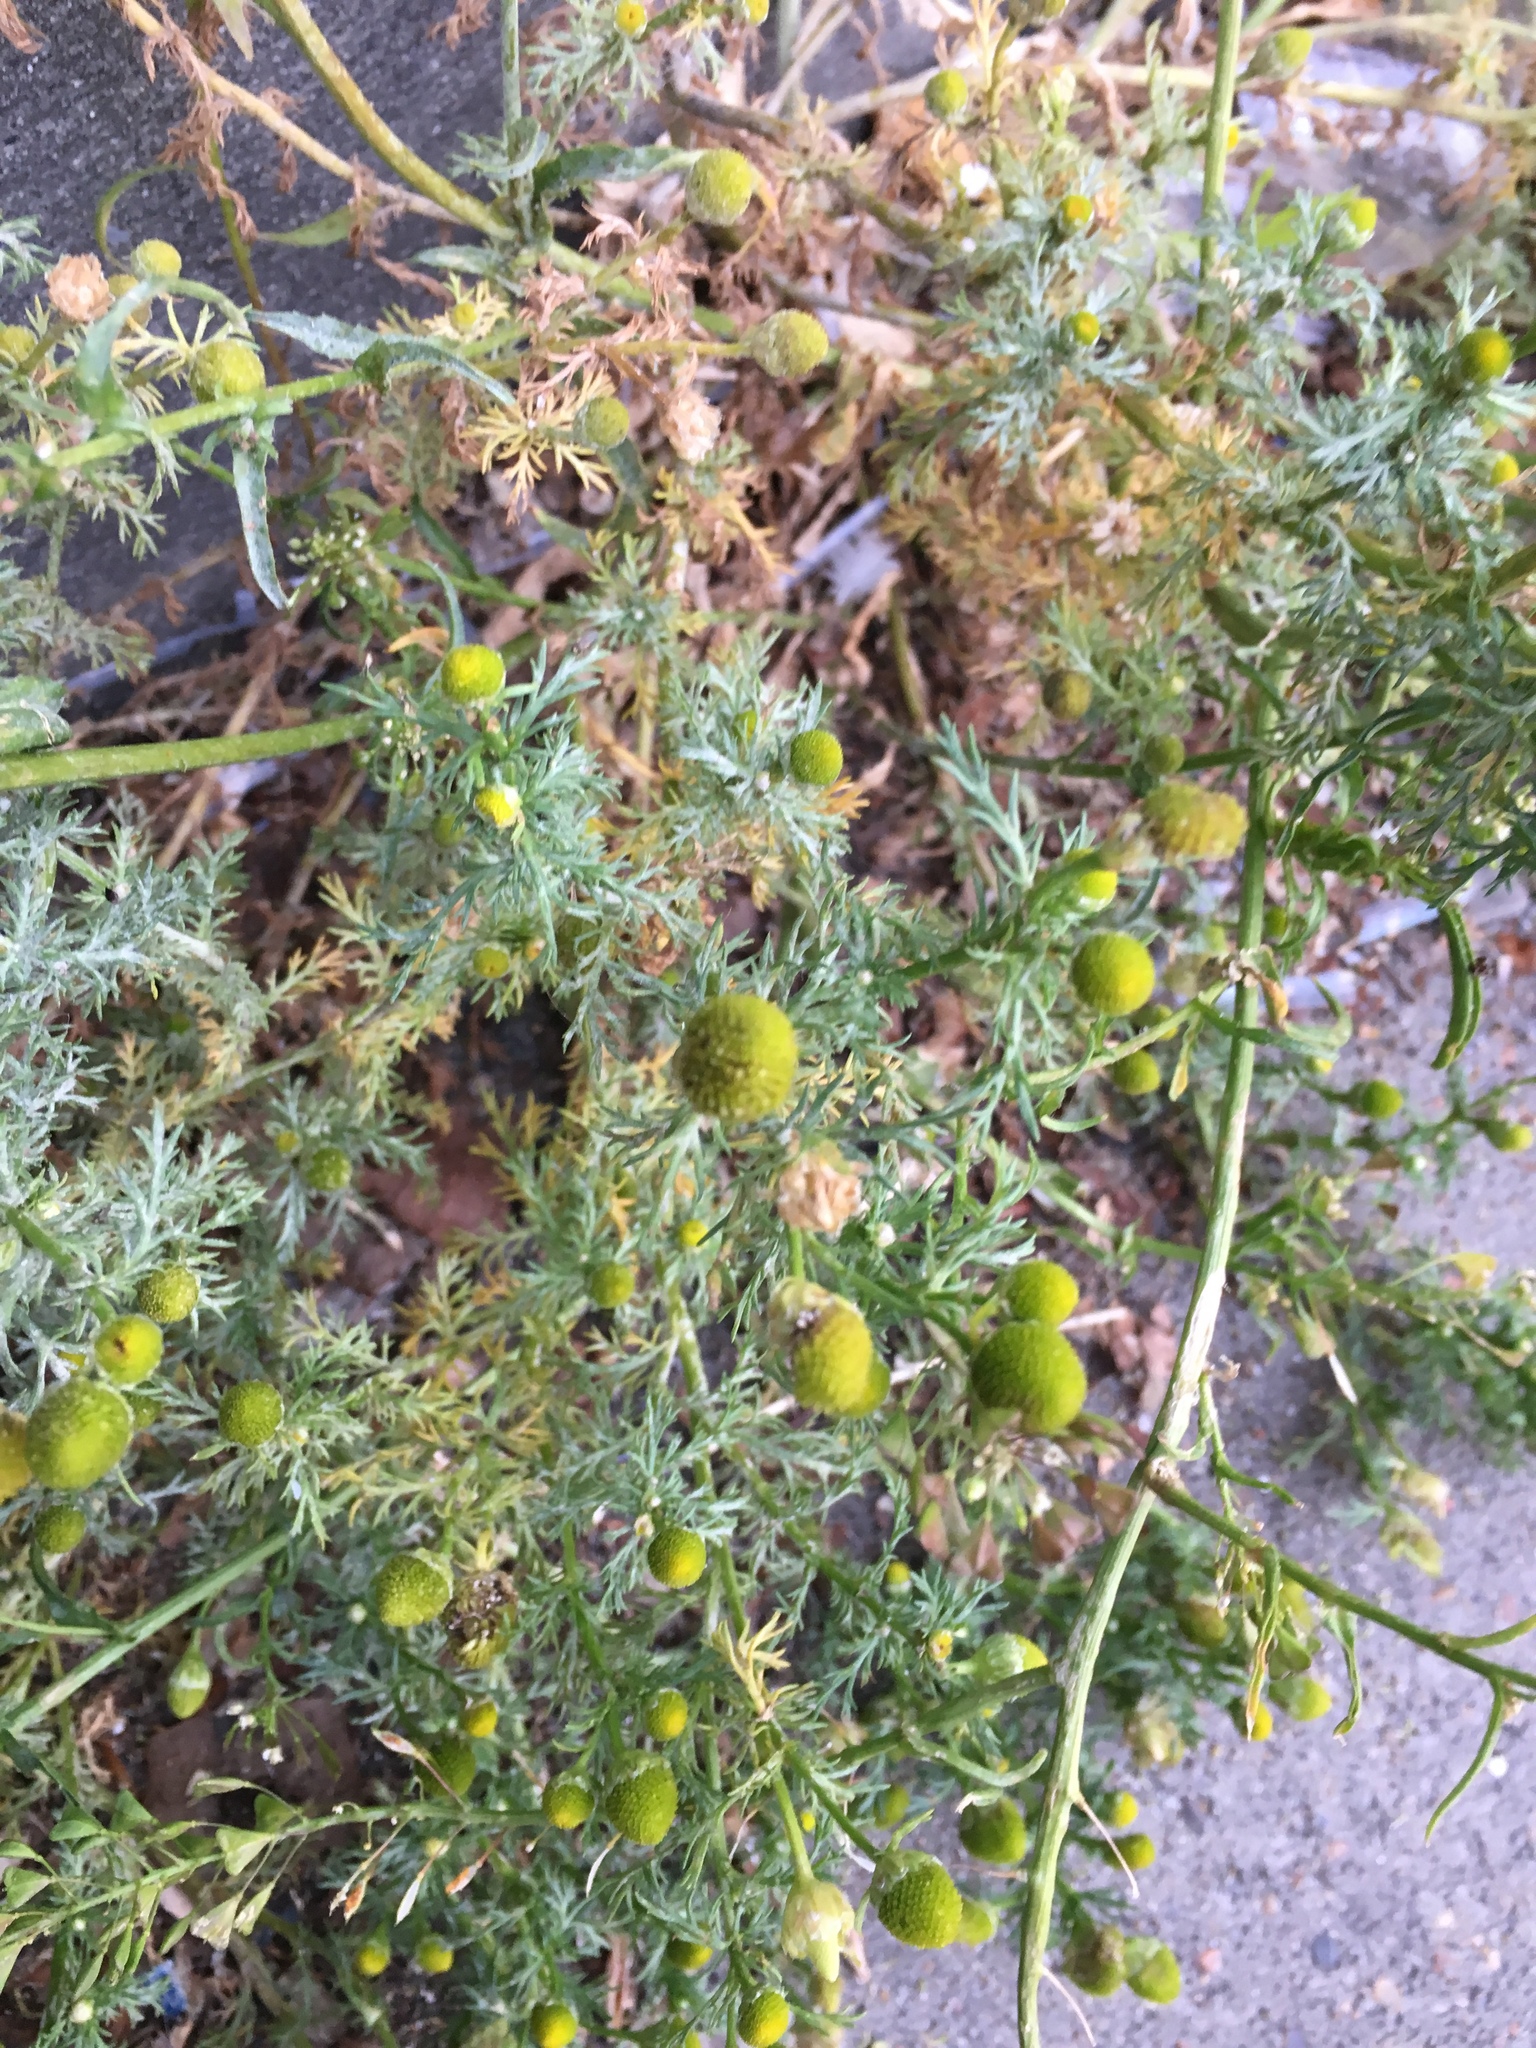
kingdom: Plantae
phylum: Tracheophyta
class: Magnoliopsida
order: Asterales
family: Asteraceae
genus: Matricaria
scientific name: Matricaria discoidea
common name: Disc mayweed
